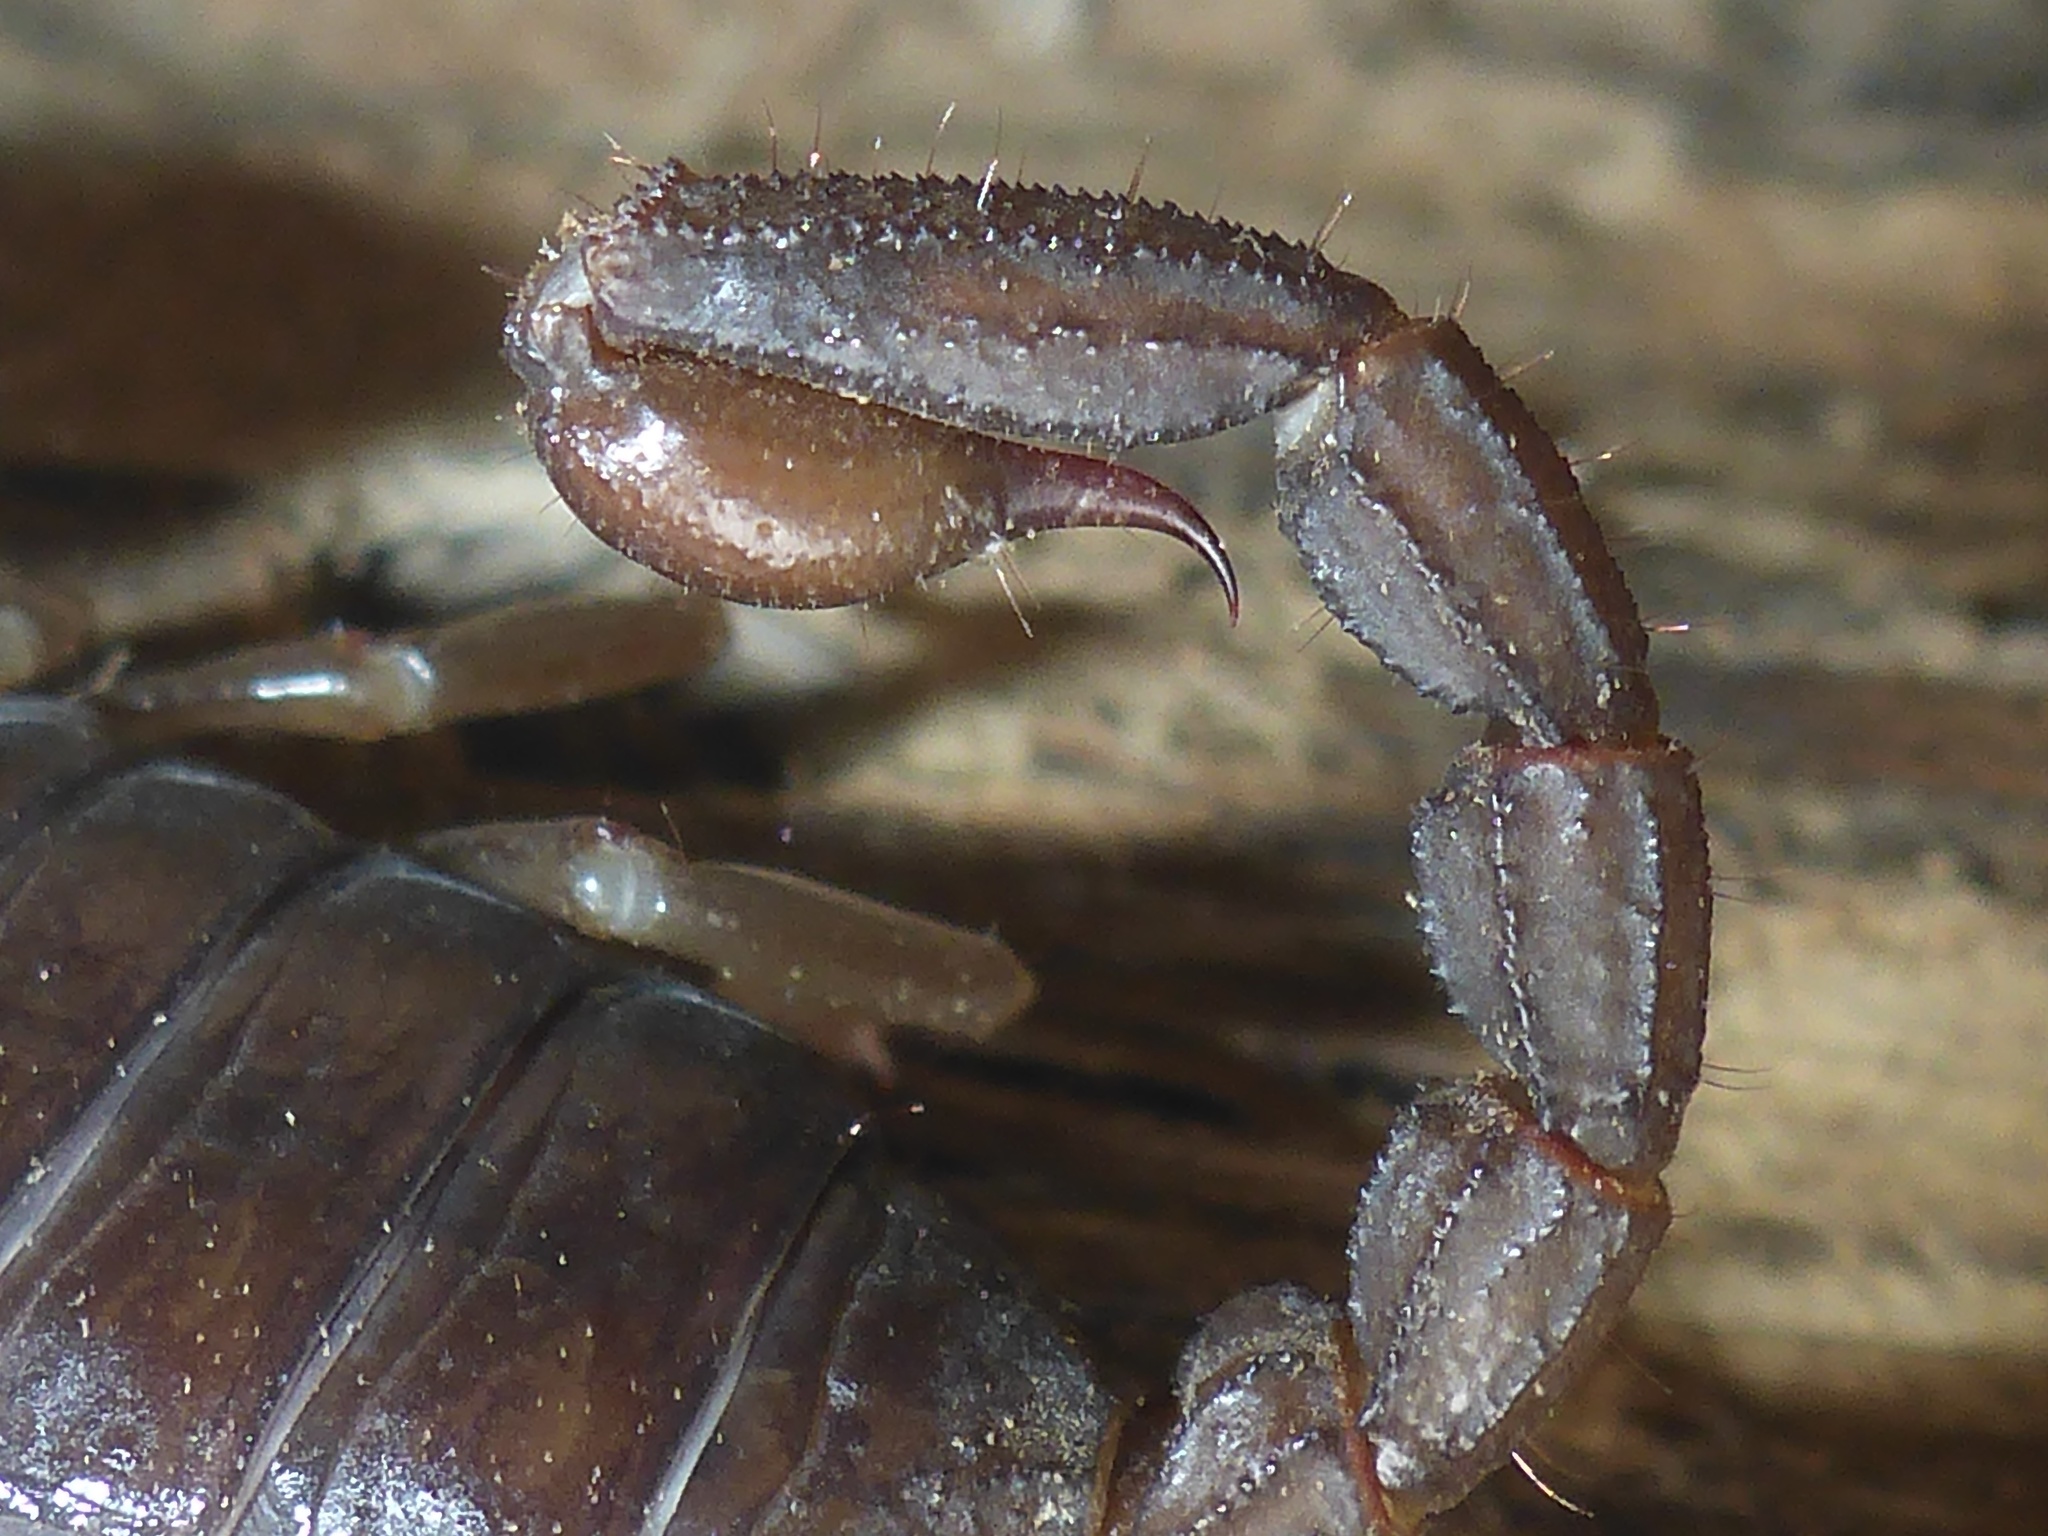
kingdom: Animalia
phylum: Arthropoda
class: Arachnida
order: Scorpiones
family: Chactidae
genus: Uroctonus
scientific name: Uroctonus mordax
